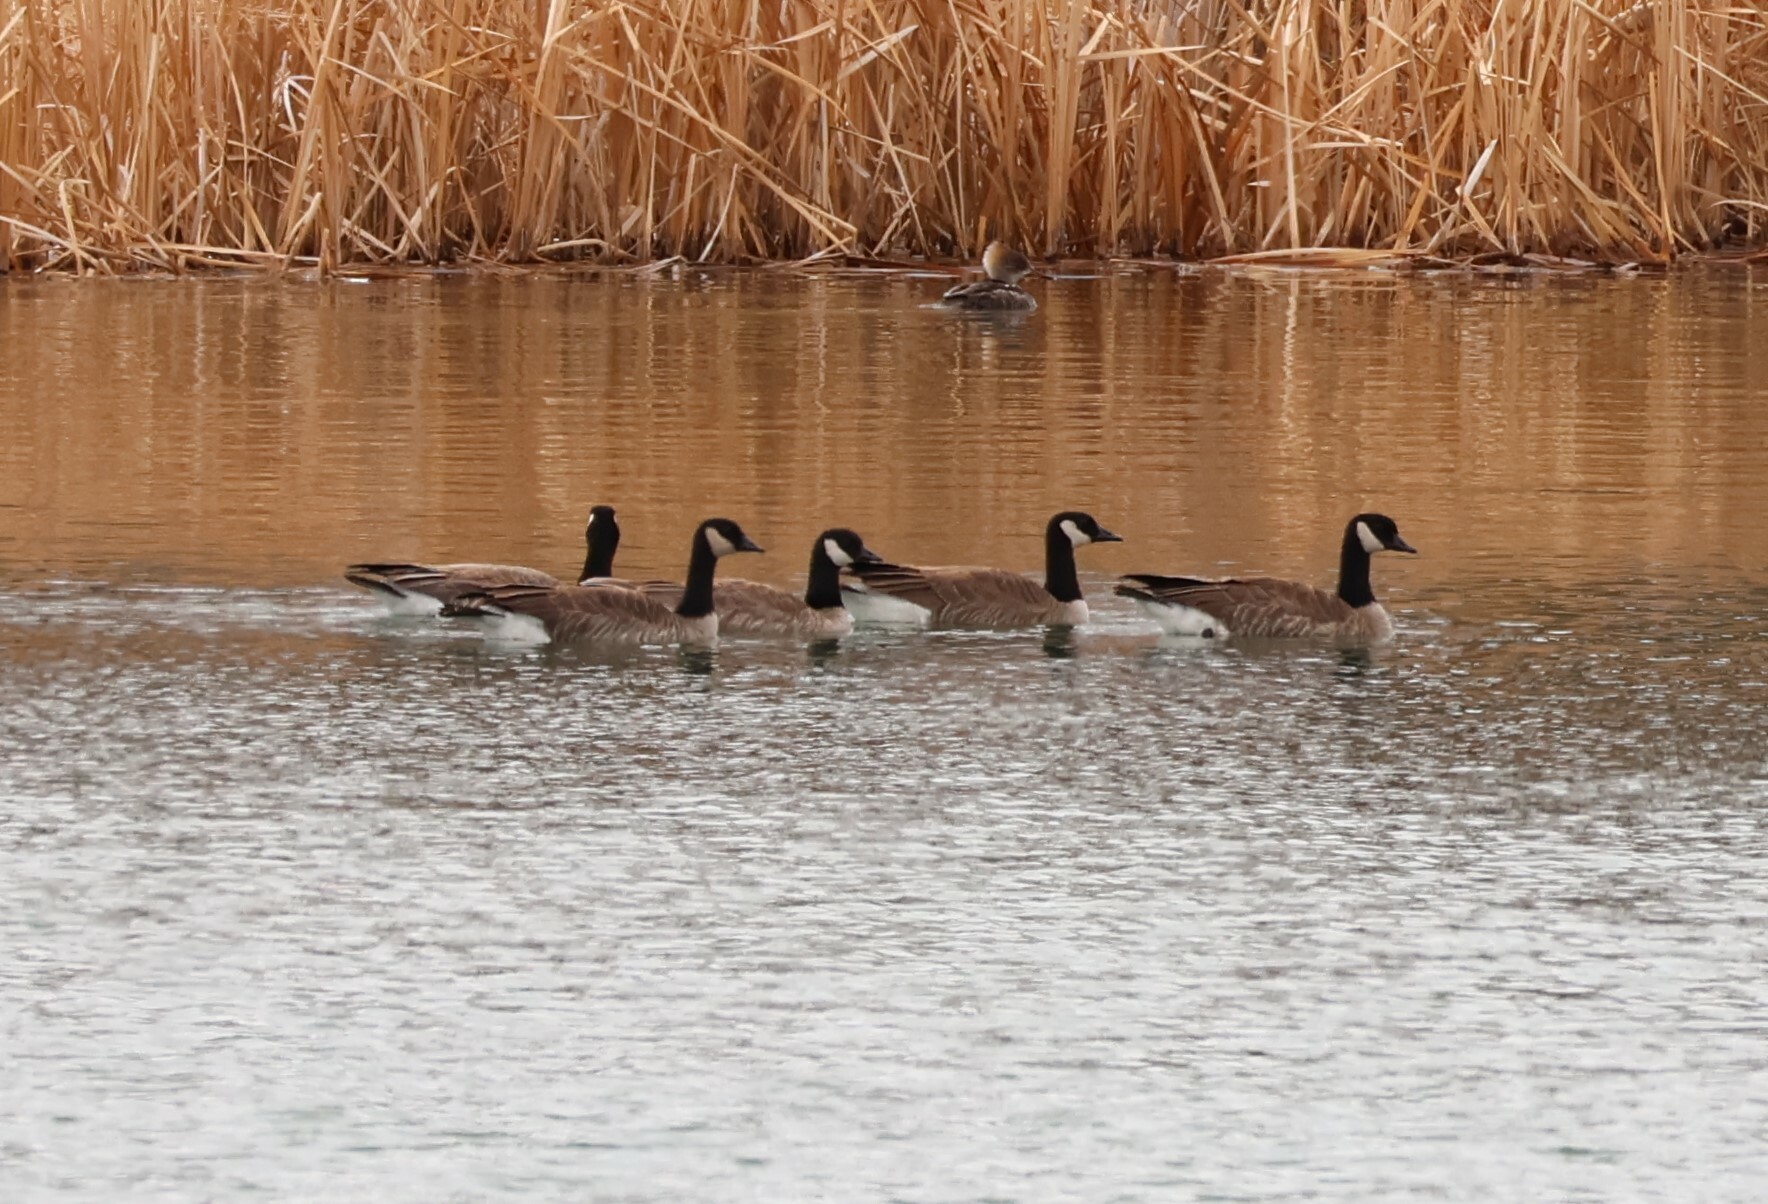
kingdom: Animalia
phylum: Chordata
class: Aves
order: Anseriformes
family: Anatidae
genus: Branta
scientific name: Branta hutchinsii
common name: Cackling goose
